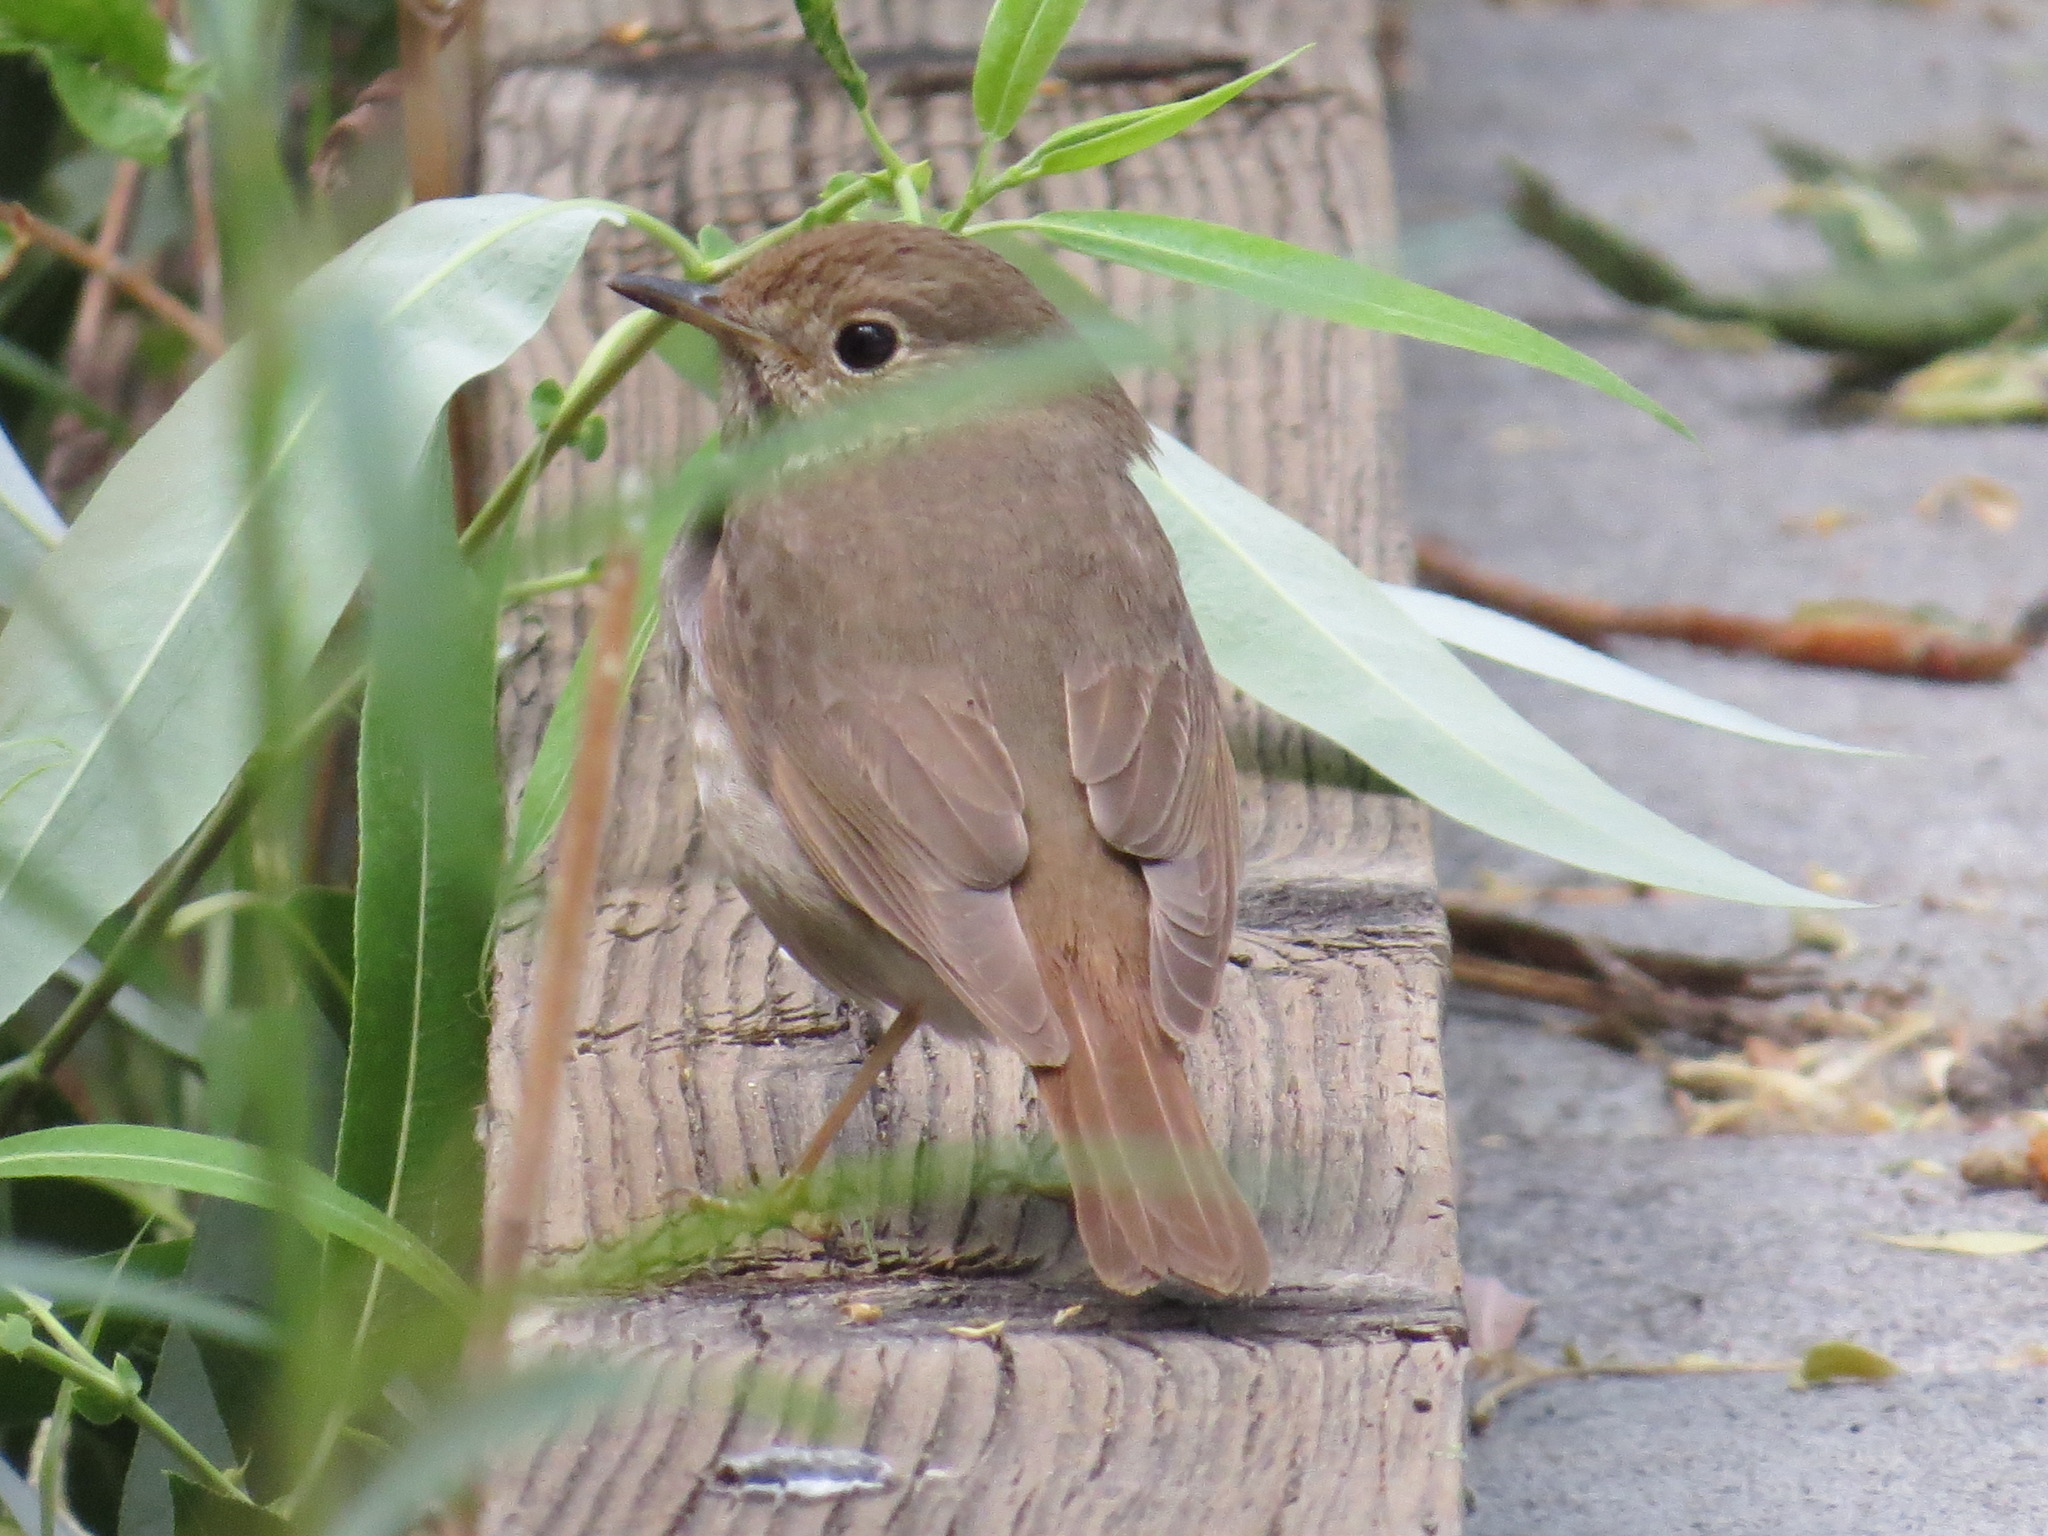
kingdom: Animalia
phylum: Chordata
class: Aves
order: Passeriformes
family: Turdidae
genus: Catharus
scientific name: Catharus guttatus
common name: Hermit thrush
